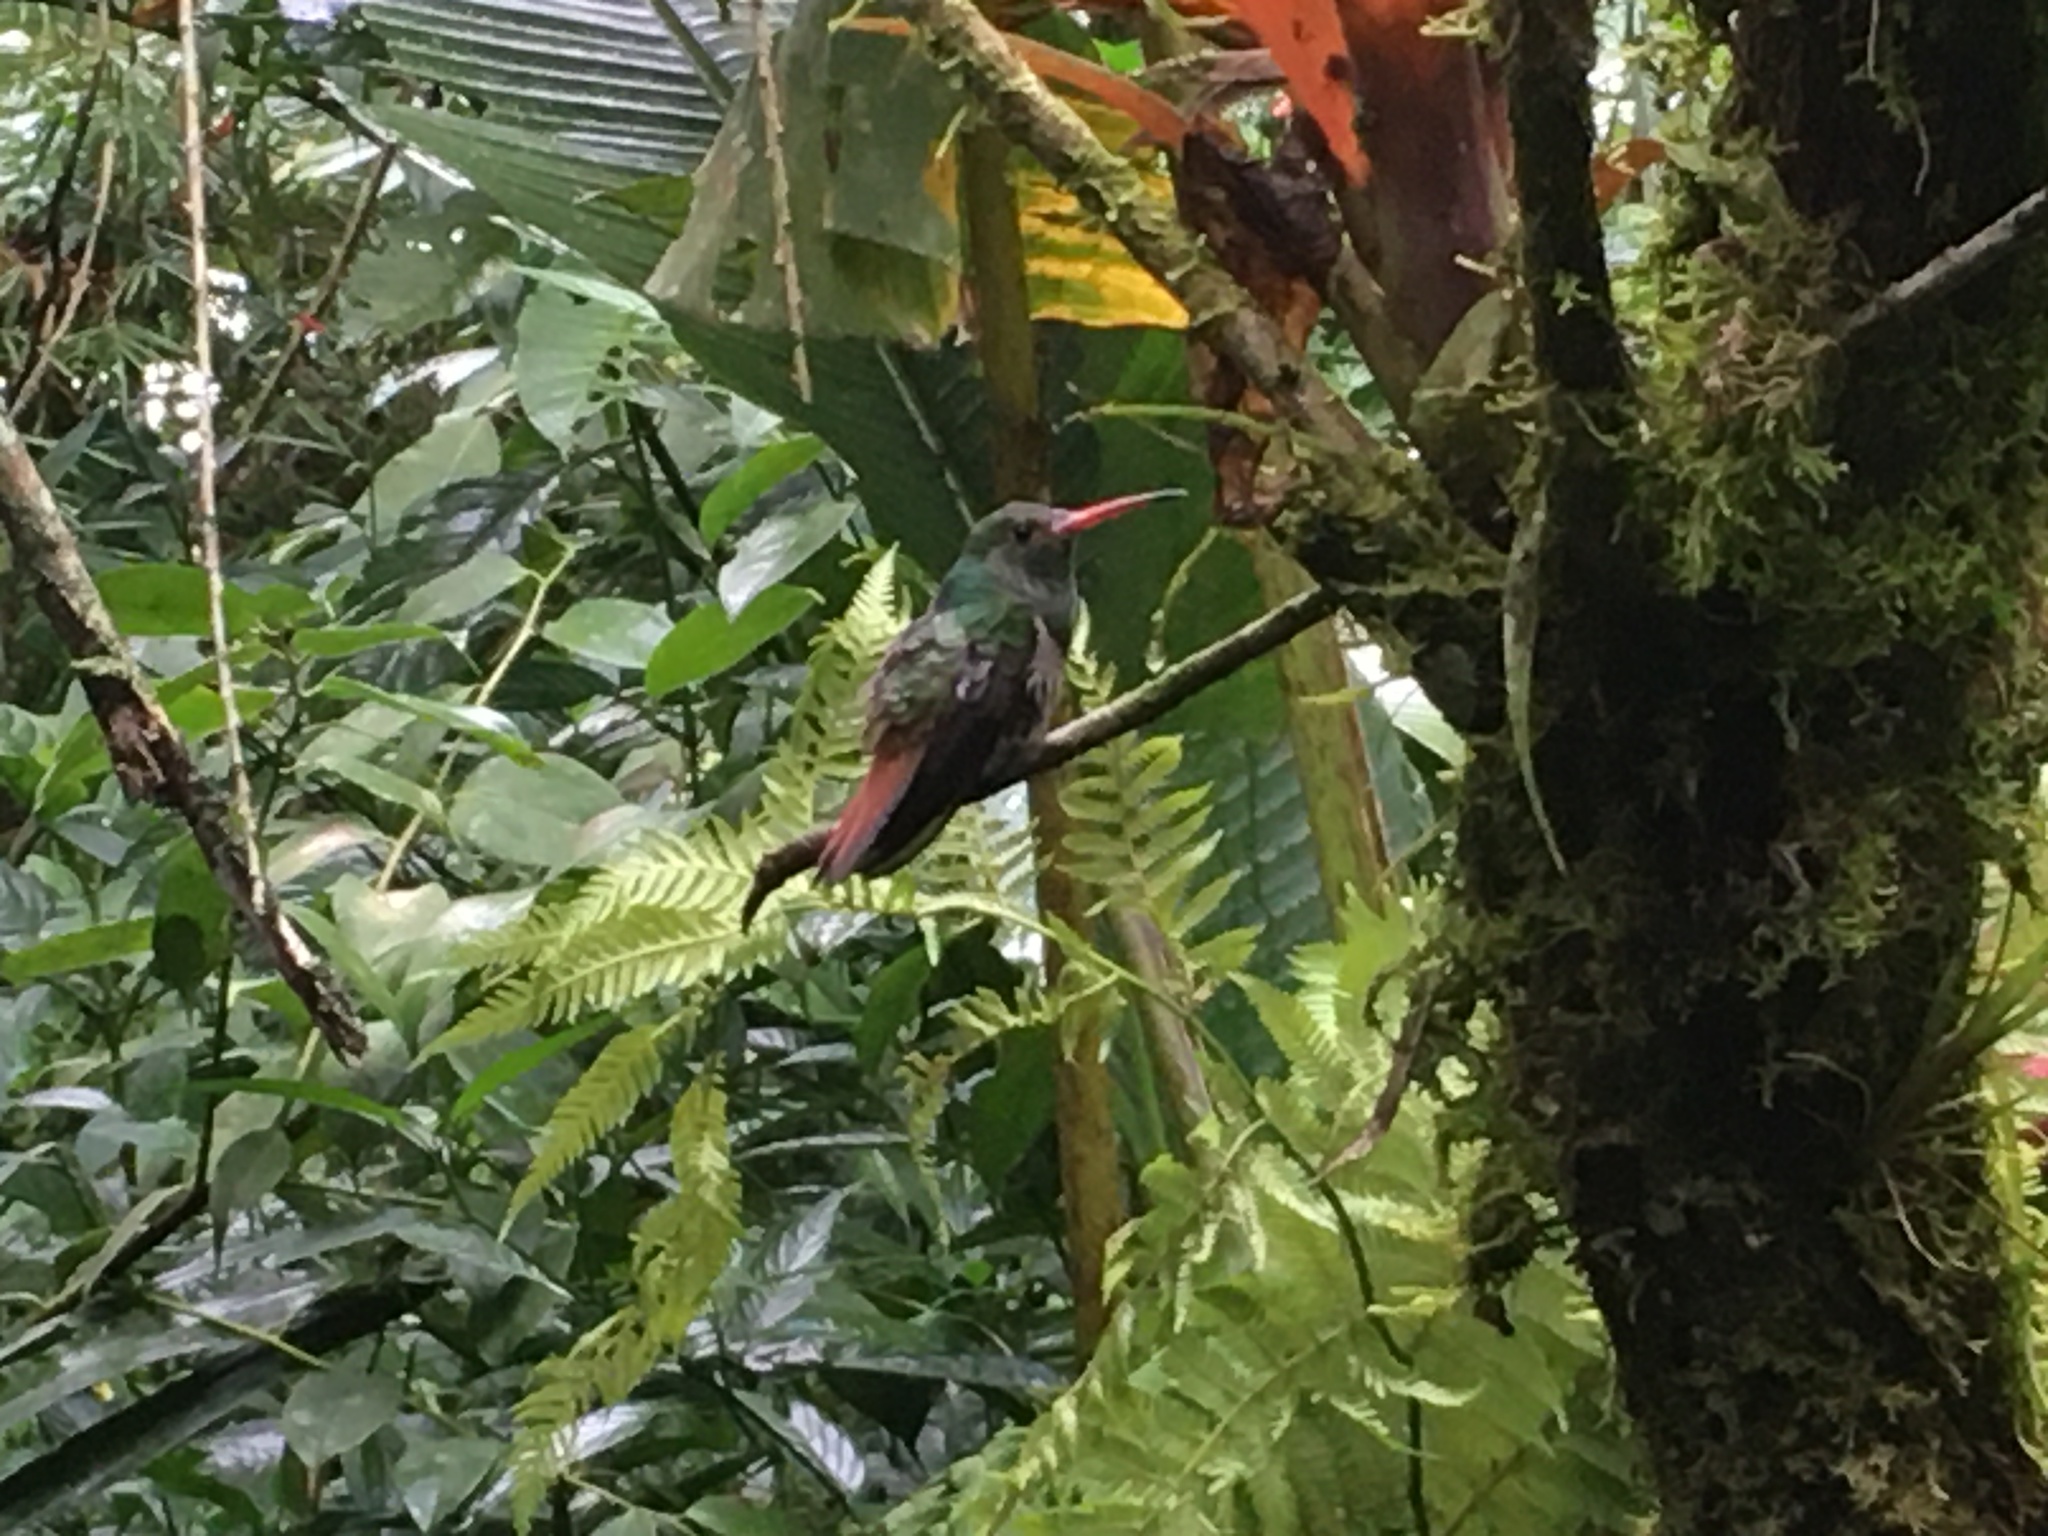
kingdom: Animalia
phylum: Chordata
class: Aves
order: Apodiformes
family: Trochilidae
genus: Amazilia
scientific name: Amazilia tzacatl
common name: Rufous-tailed hummingbird
